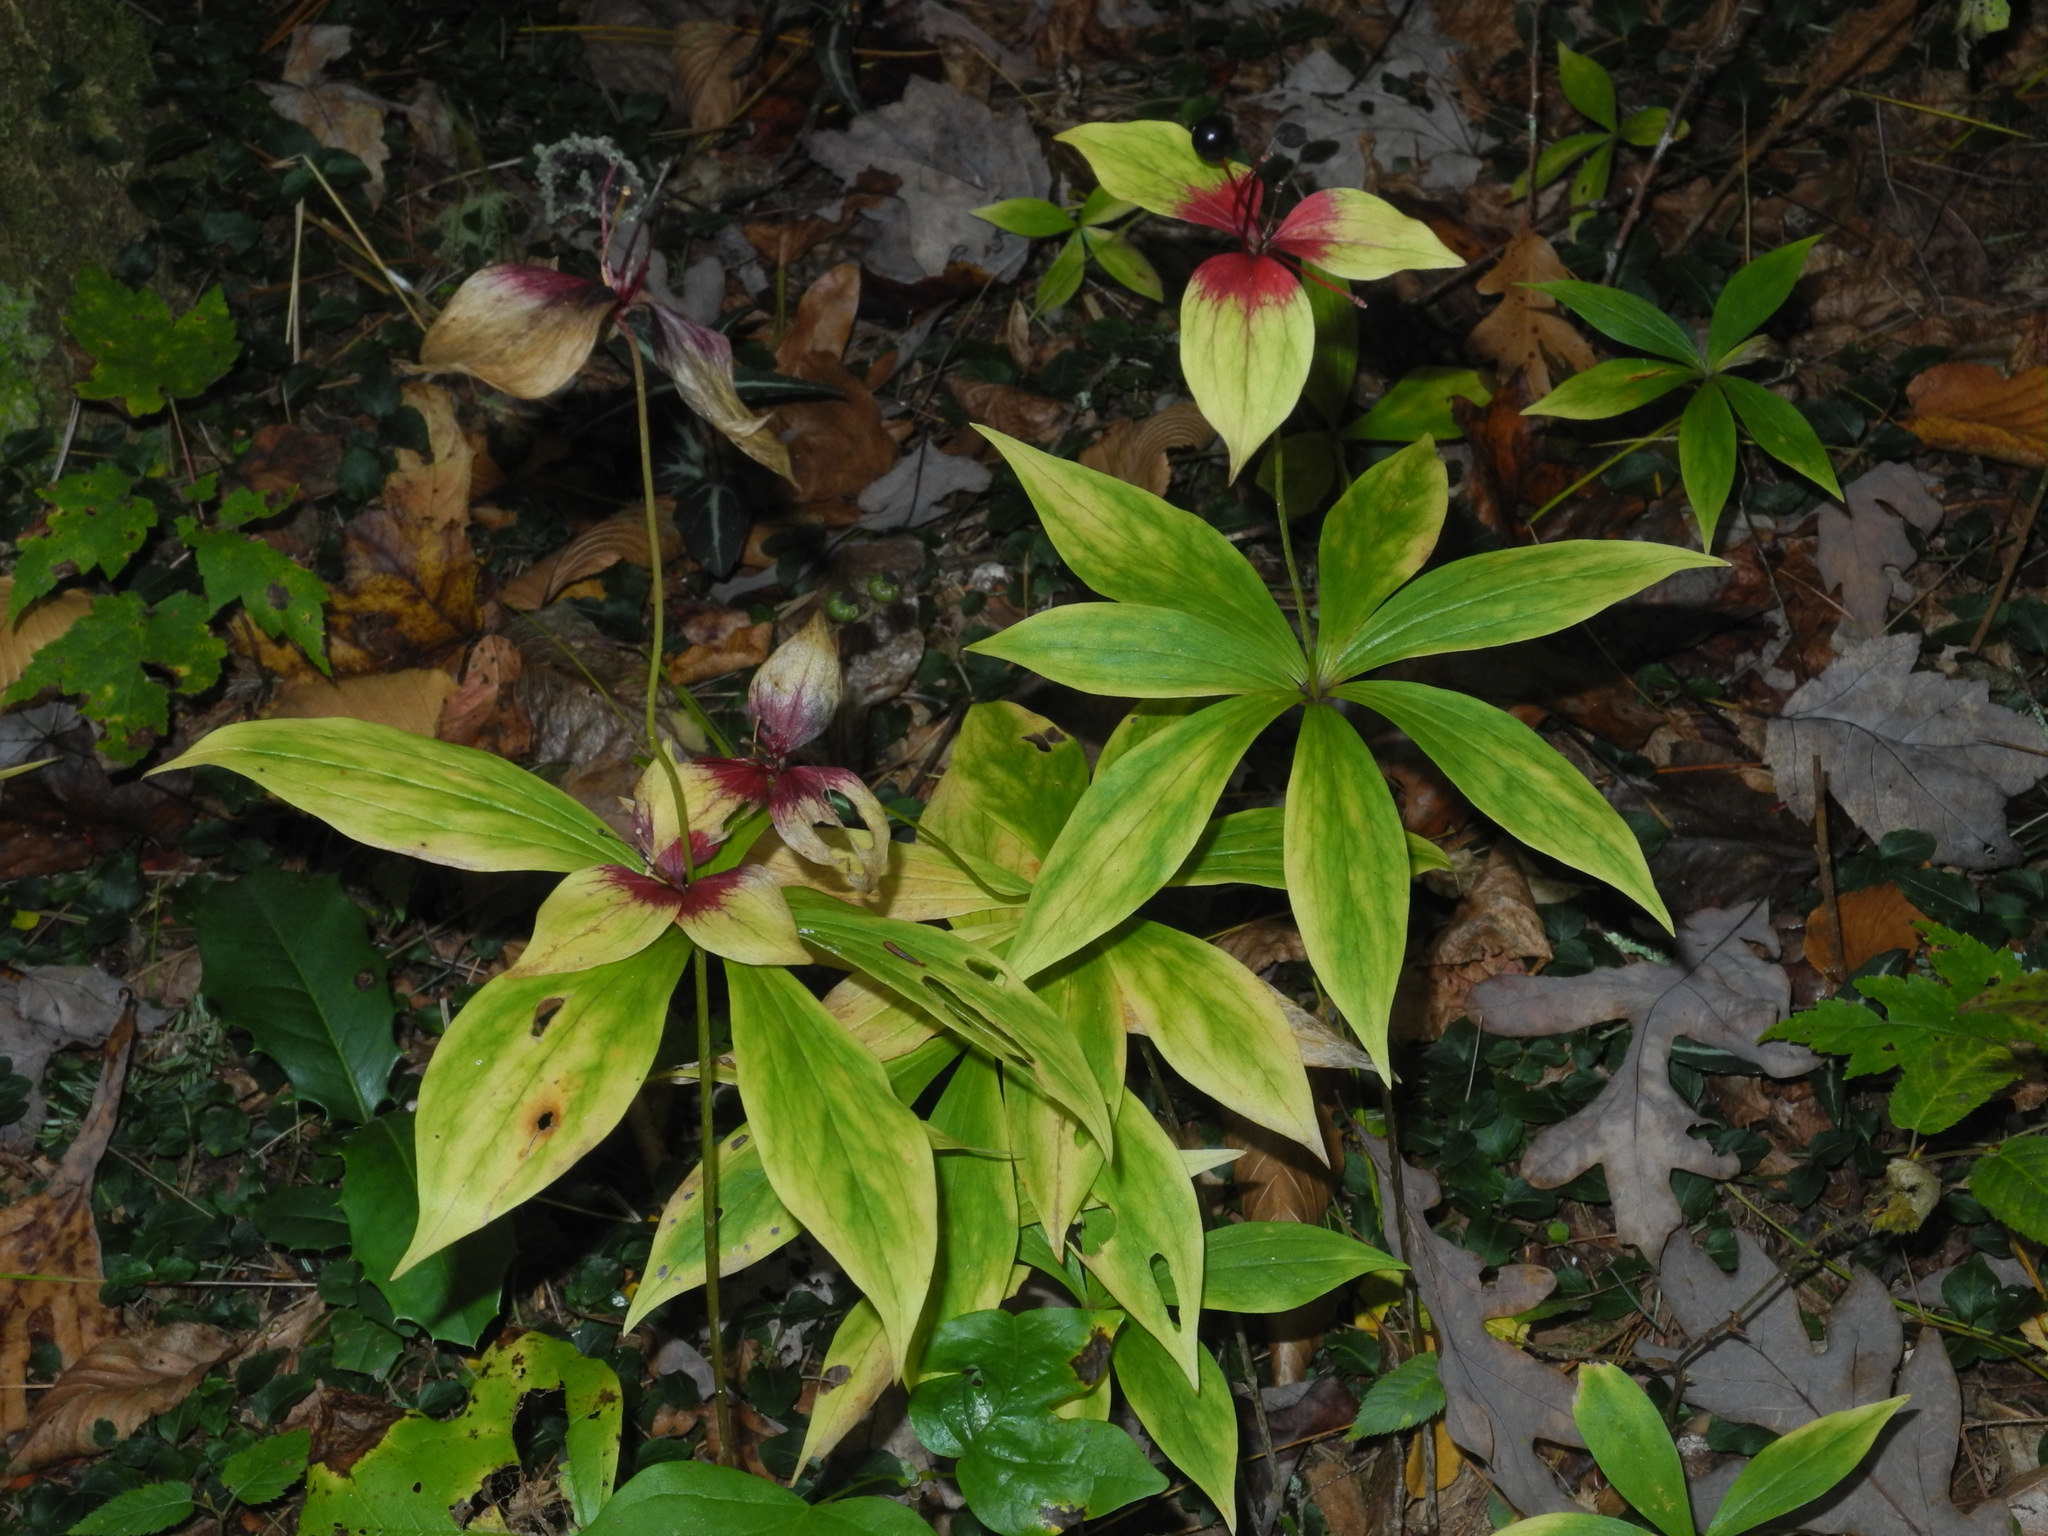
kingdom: Plantae
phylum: Tracheophyta
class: Liliopsida
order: Liliales
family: Liliaceae
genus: Medeola
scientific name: Medeola virginiana
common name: Indian cucumber-root
